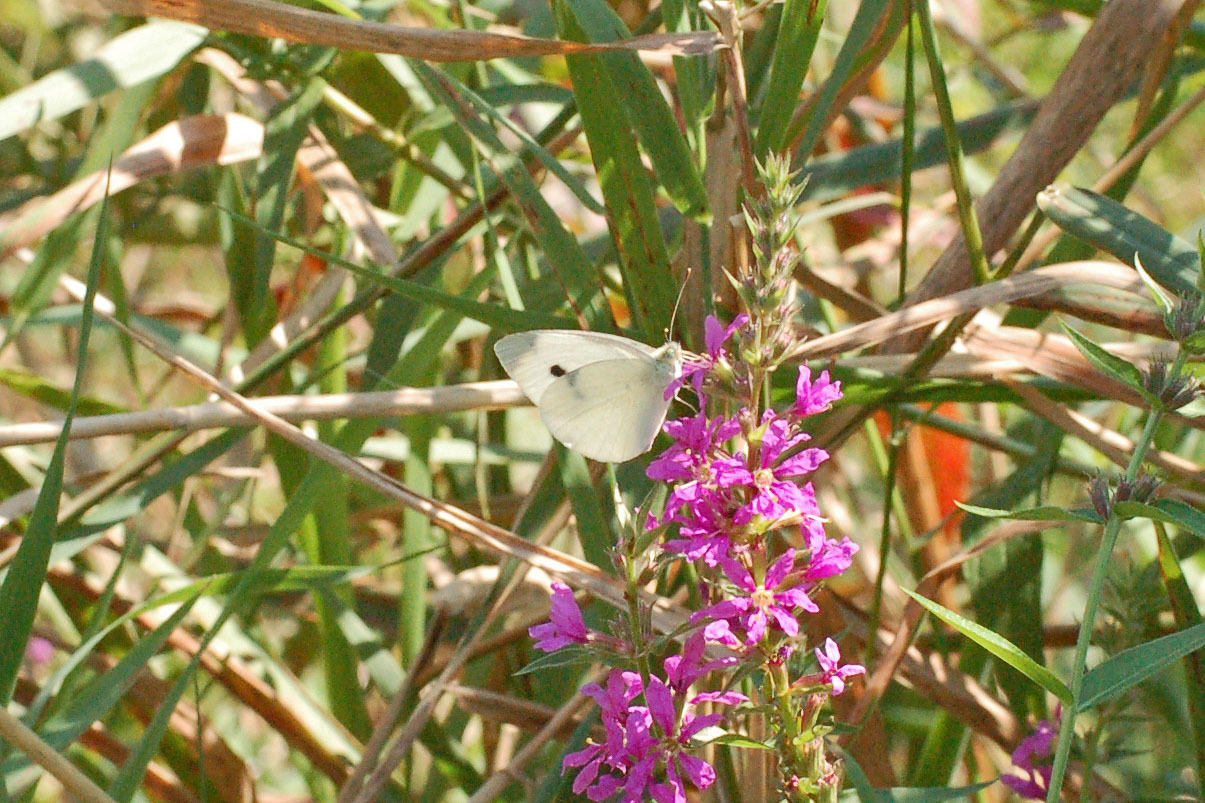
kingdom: Animalia
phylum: Arthropoda
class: Insecta
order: Lepidoptera
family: Pieridae
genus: Pieris
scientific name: Pieris rapae
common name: Small white
